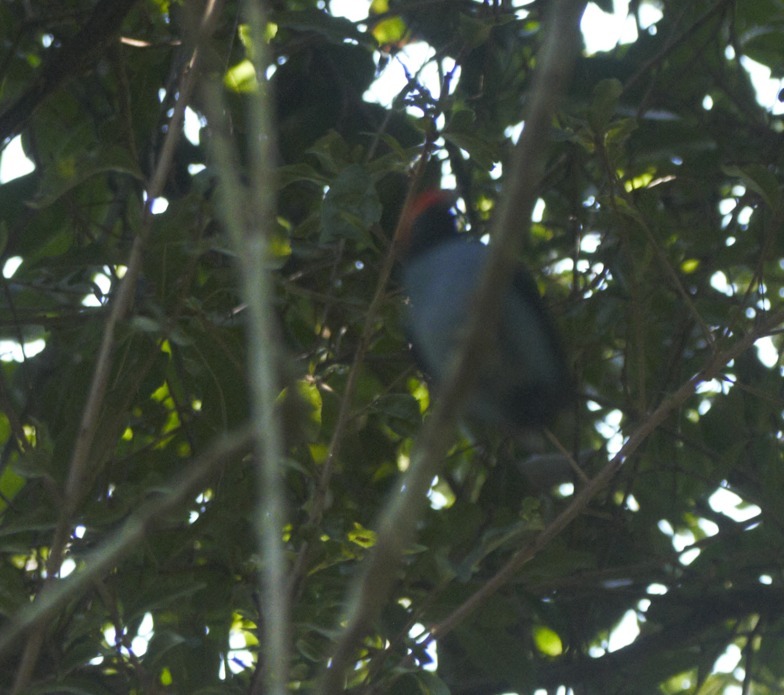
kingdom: Animalia
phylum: Chordata
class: Aves
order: Passeriformes
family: Pipridae
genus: Chiroxiphia
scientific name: Chiroxiphia caudata
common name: Blue manakin
